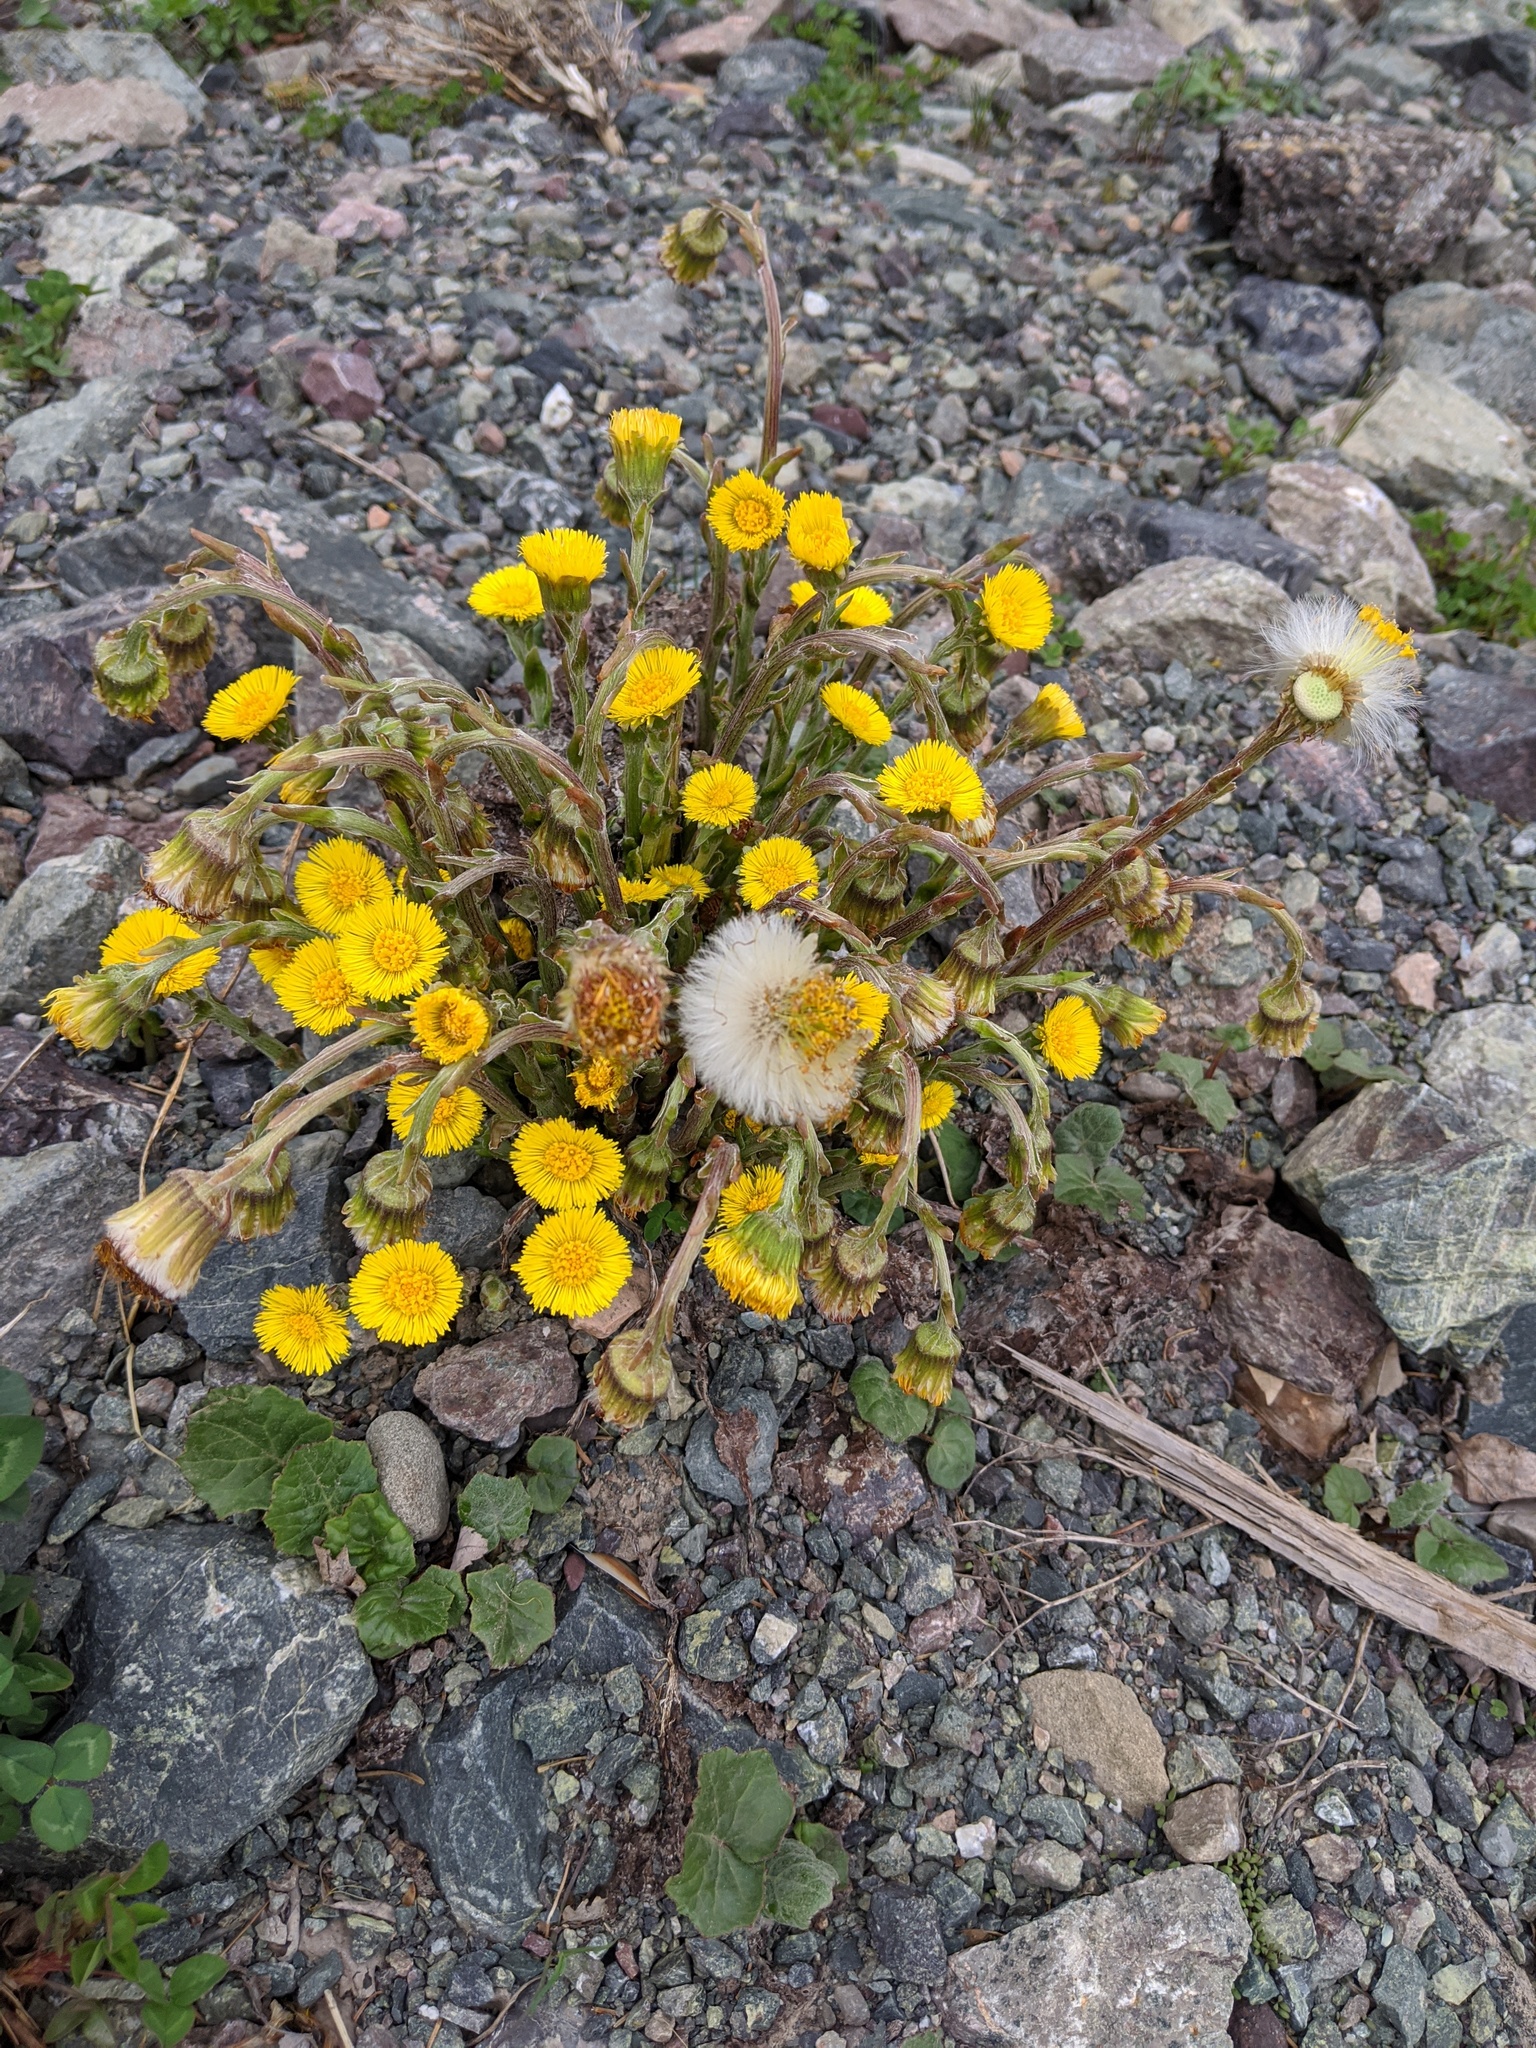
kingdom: Plantae
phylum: Tracheophyta
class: Magnoliopsida
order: Asterales
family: Asteraceae
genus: Tussilago
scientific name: Tussilago farfara
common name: Coltsfoot
